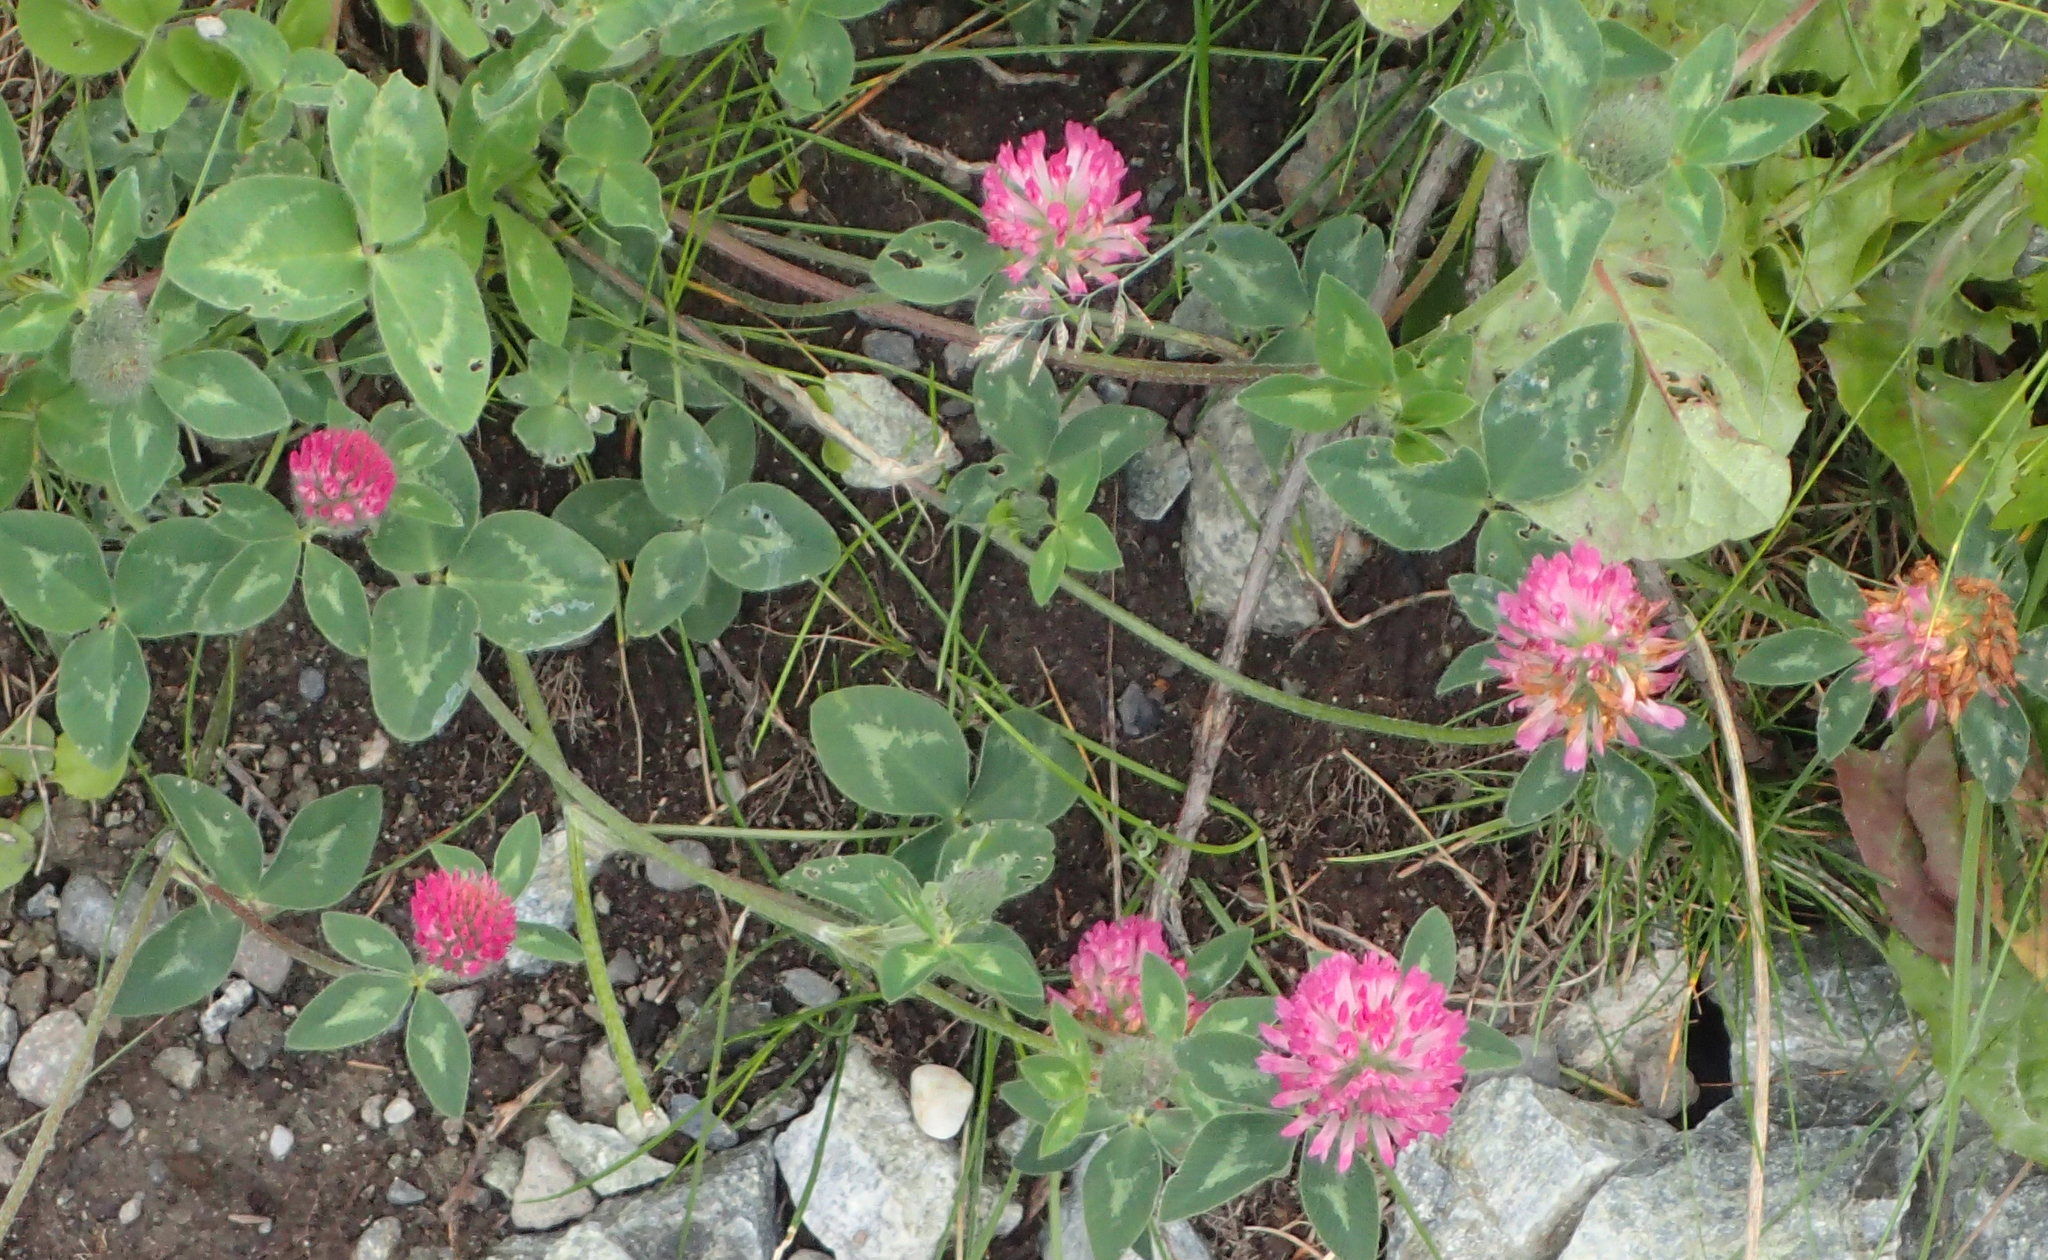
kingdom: Plantae
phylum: Tracheophyta
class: Magnoliopsida
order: Fabales
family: Fabaceae
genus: Trifolium
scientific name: Trifolium pratense
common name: Red clover
